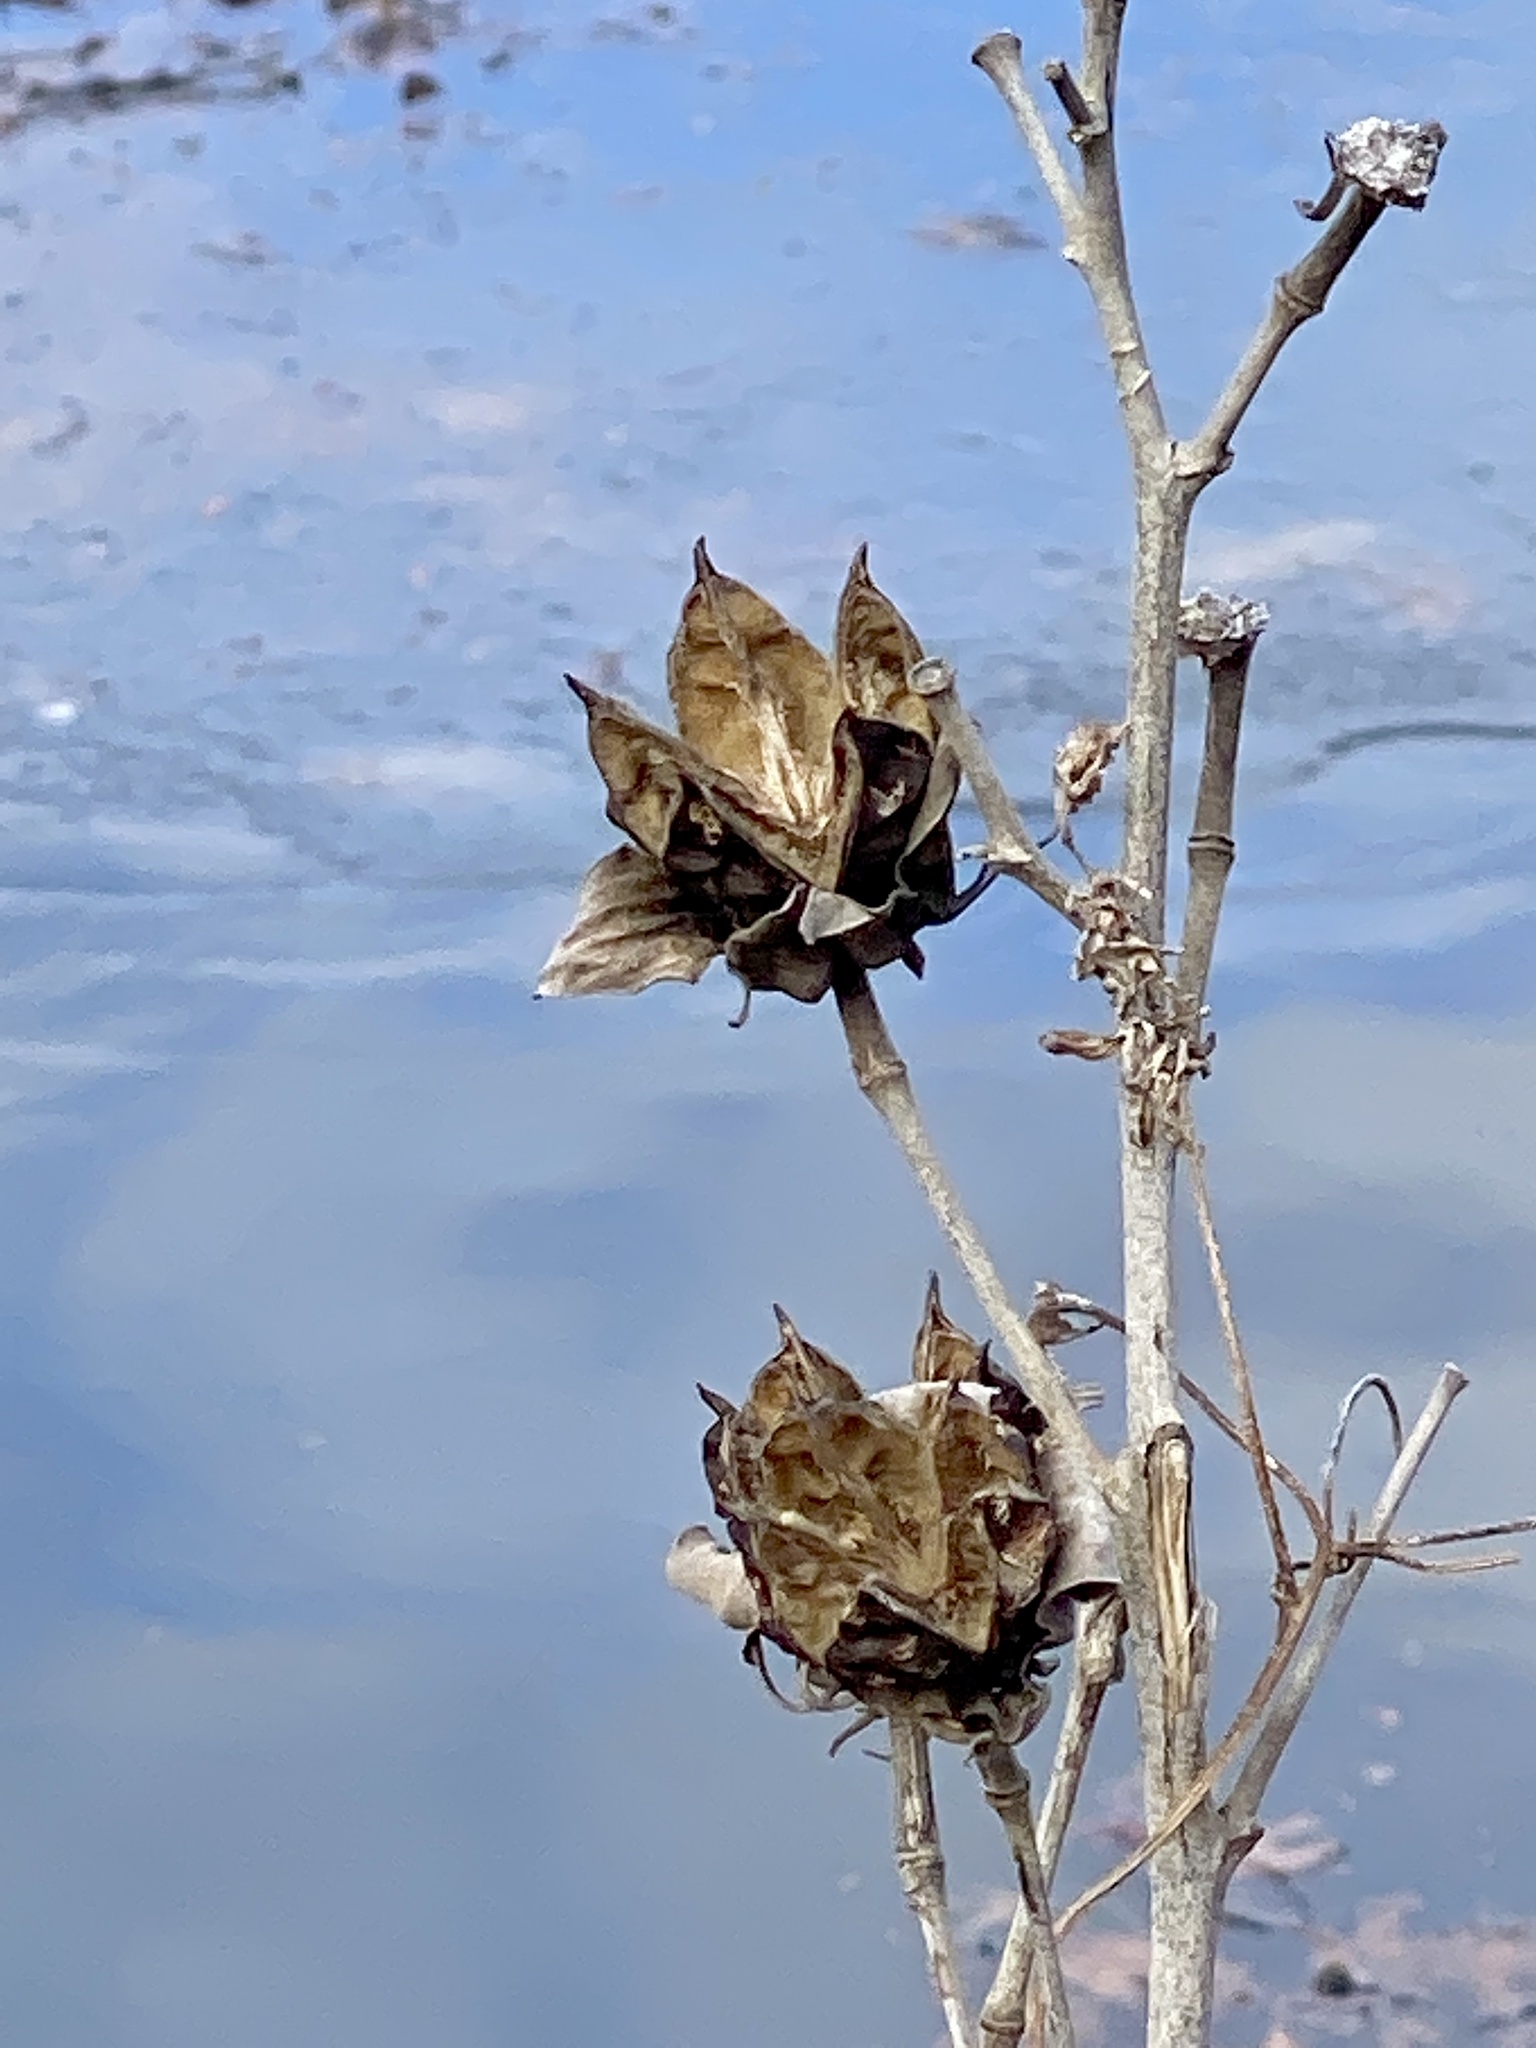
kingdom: Plantae
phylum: Tracheophyta
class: Magnoliopsida
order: Malvales
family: Malvaceae
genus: Hibiscus
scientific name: Hibiscus moscheutos
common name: Common rose-mallow
